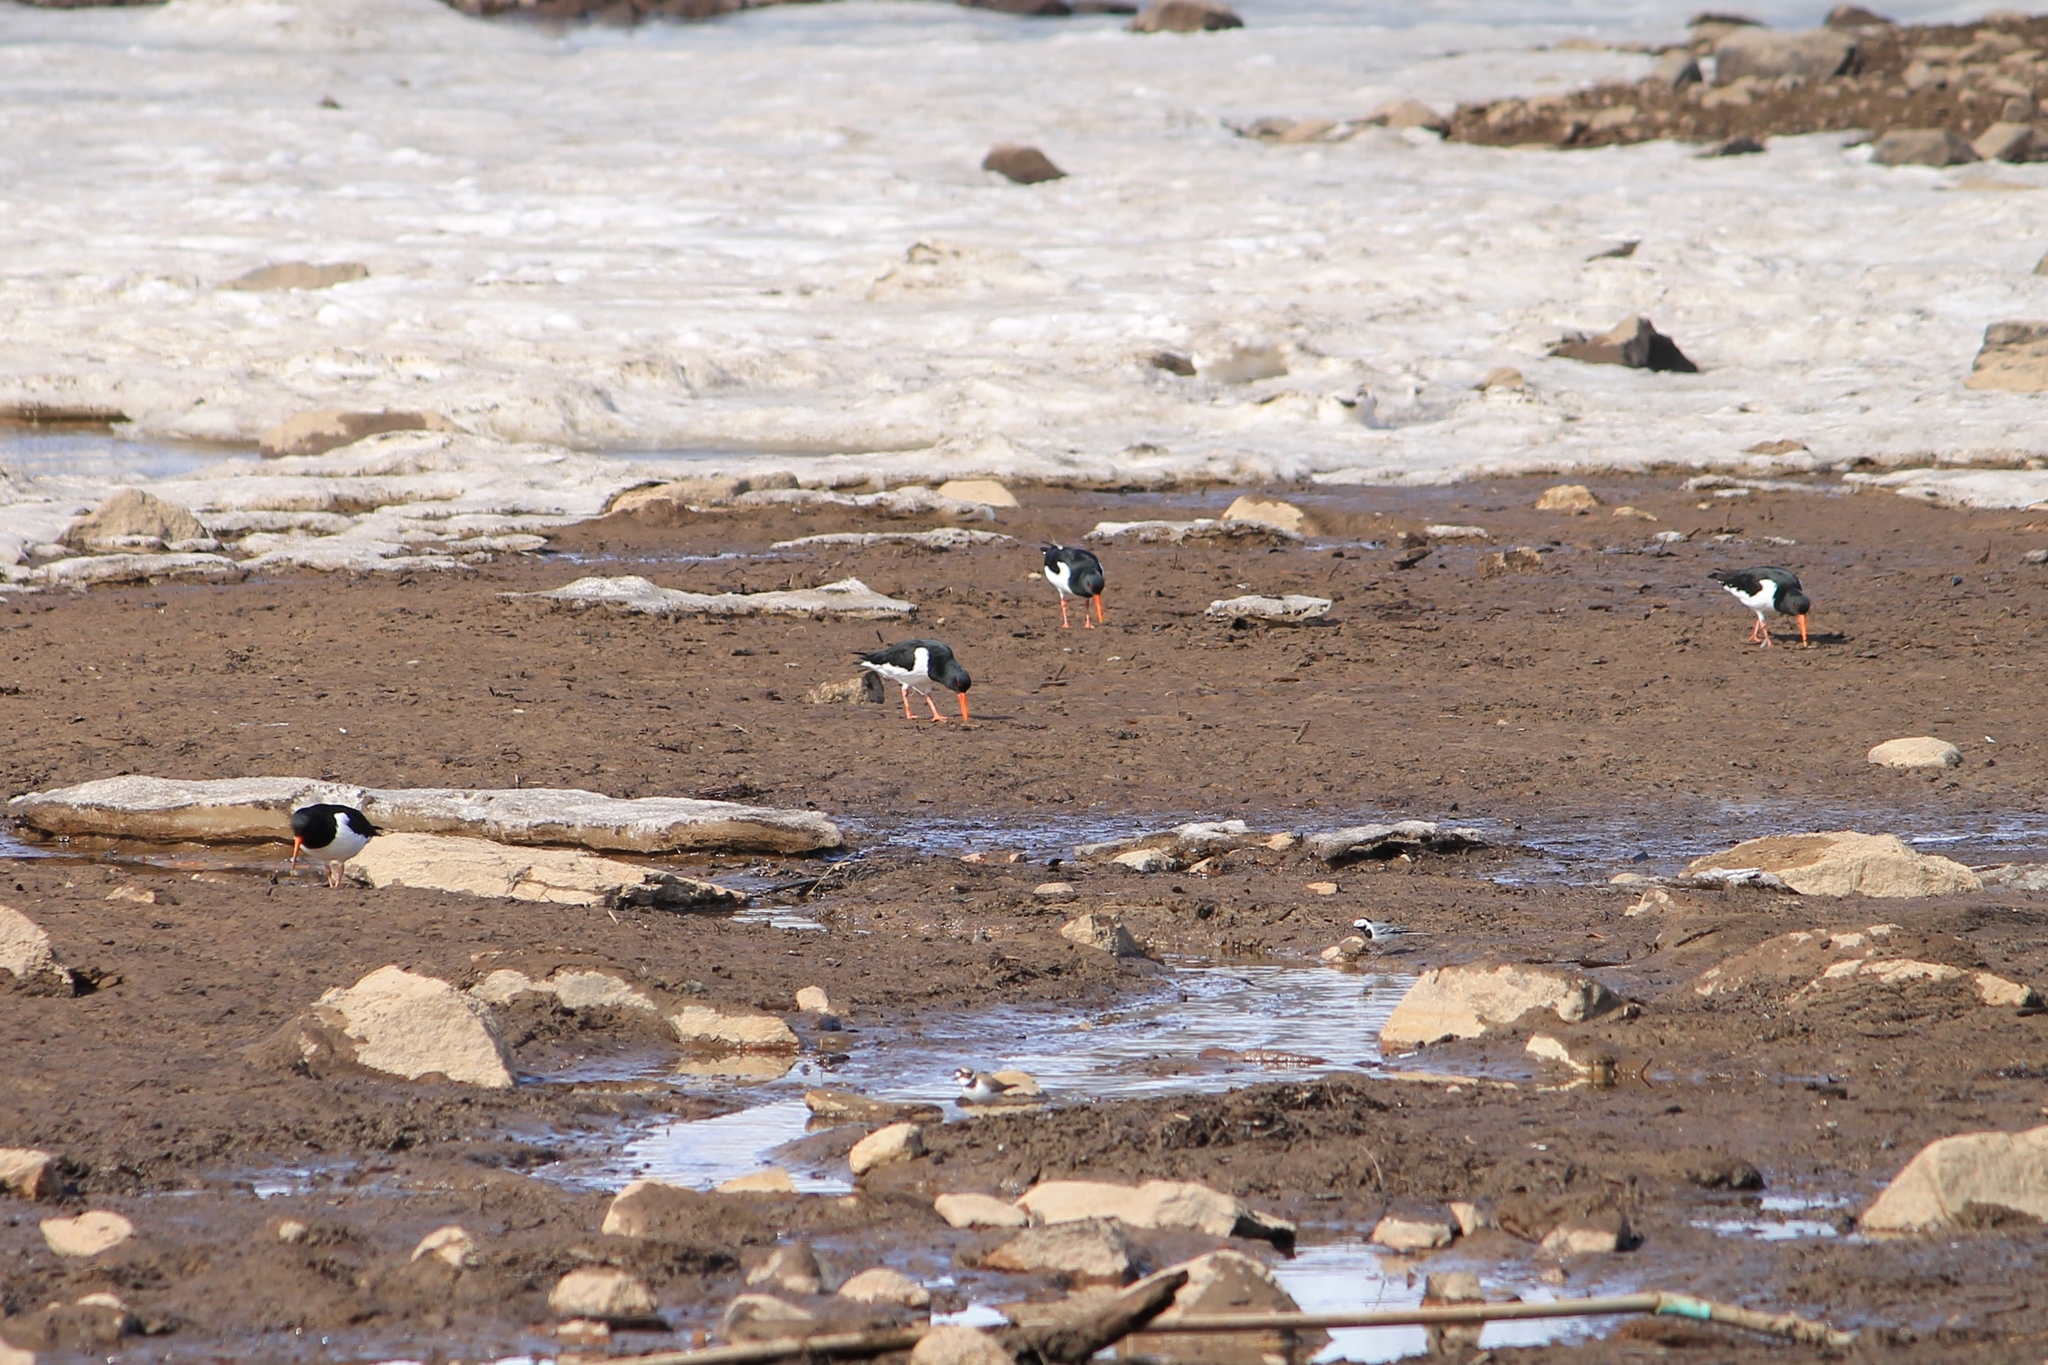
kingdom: Animalia
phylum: Chordata
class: Aves
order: Charadriiformes
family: Haematopodidae
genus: Haematopus
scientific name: Haematopus ostralegus
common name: Eurasian oystercatcher
